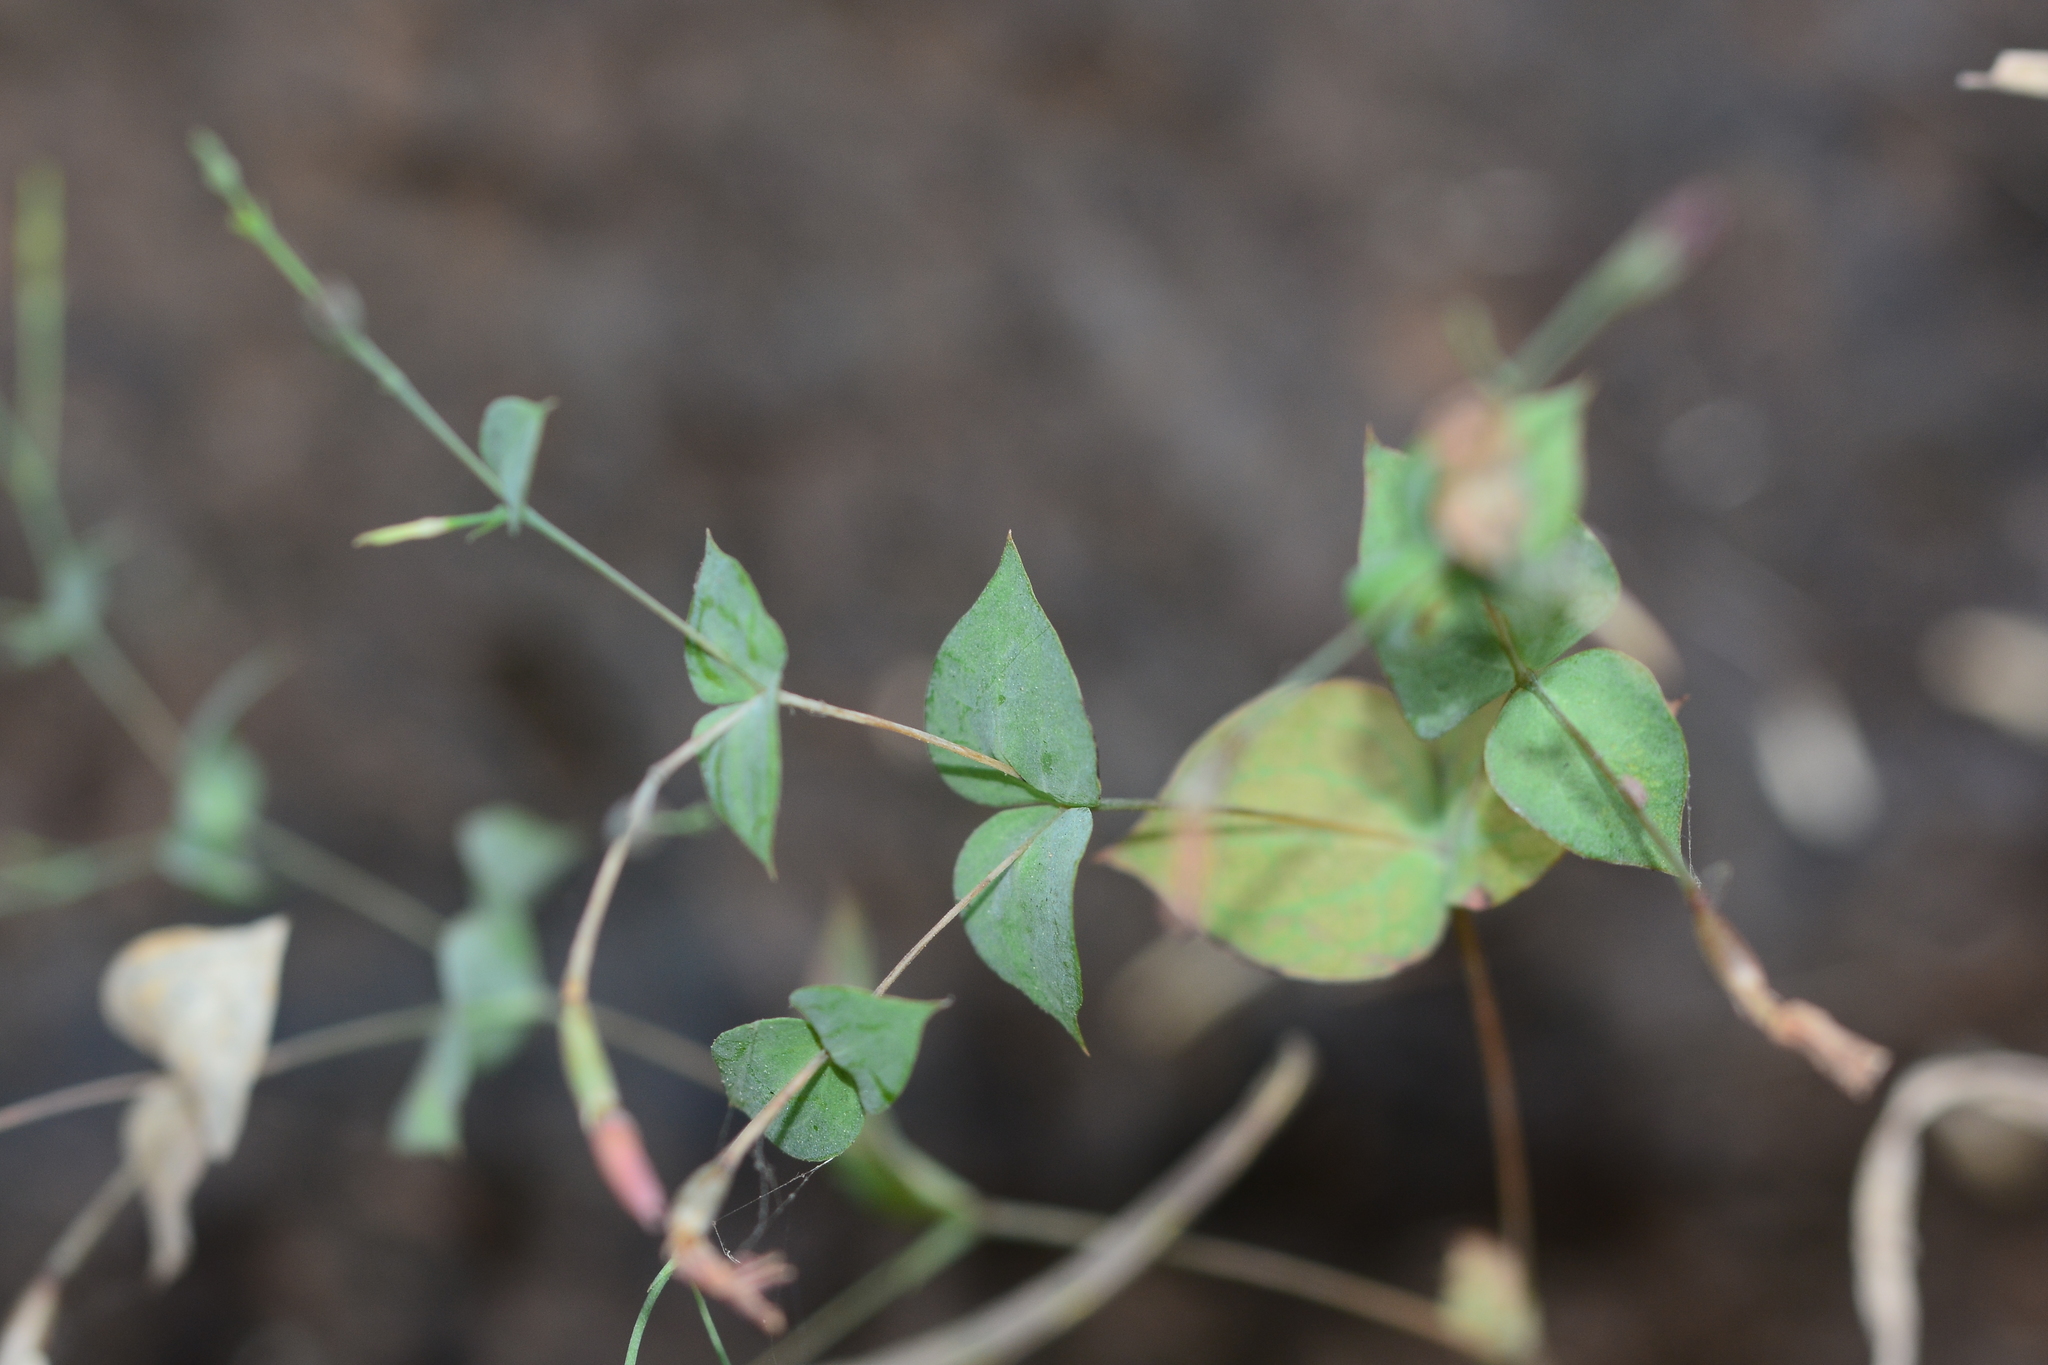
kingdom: Plantae
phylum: Tracheophyta
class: Magnoliopsida
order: Gentianales
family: Gentianaceae
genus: Canscora
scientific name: Canscora diffusa
